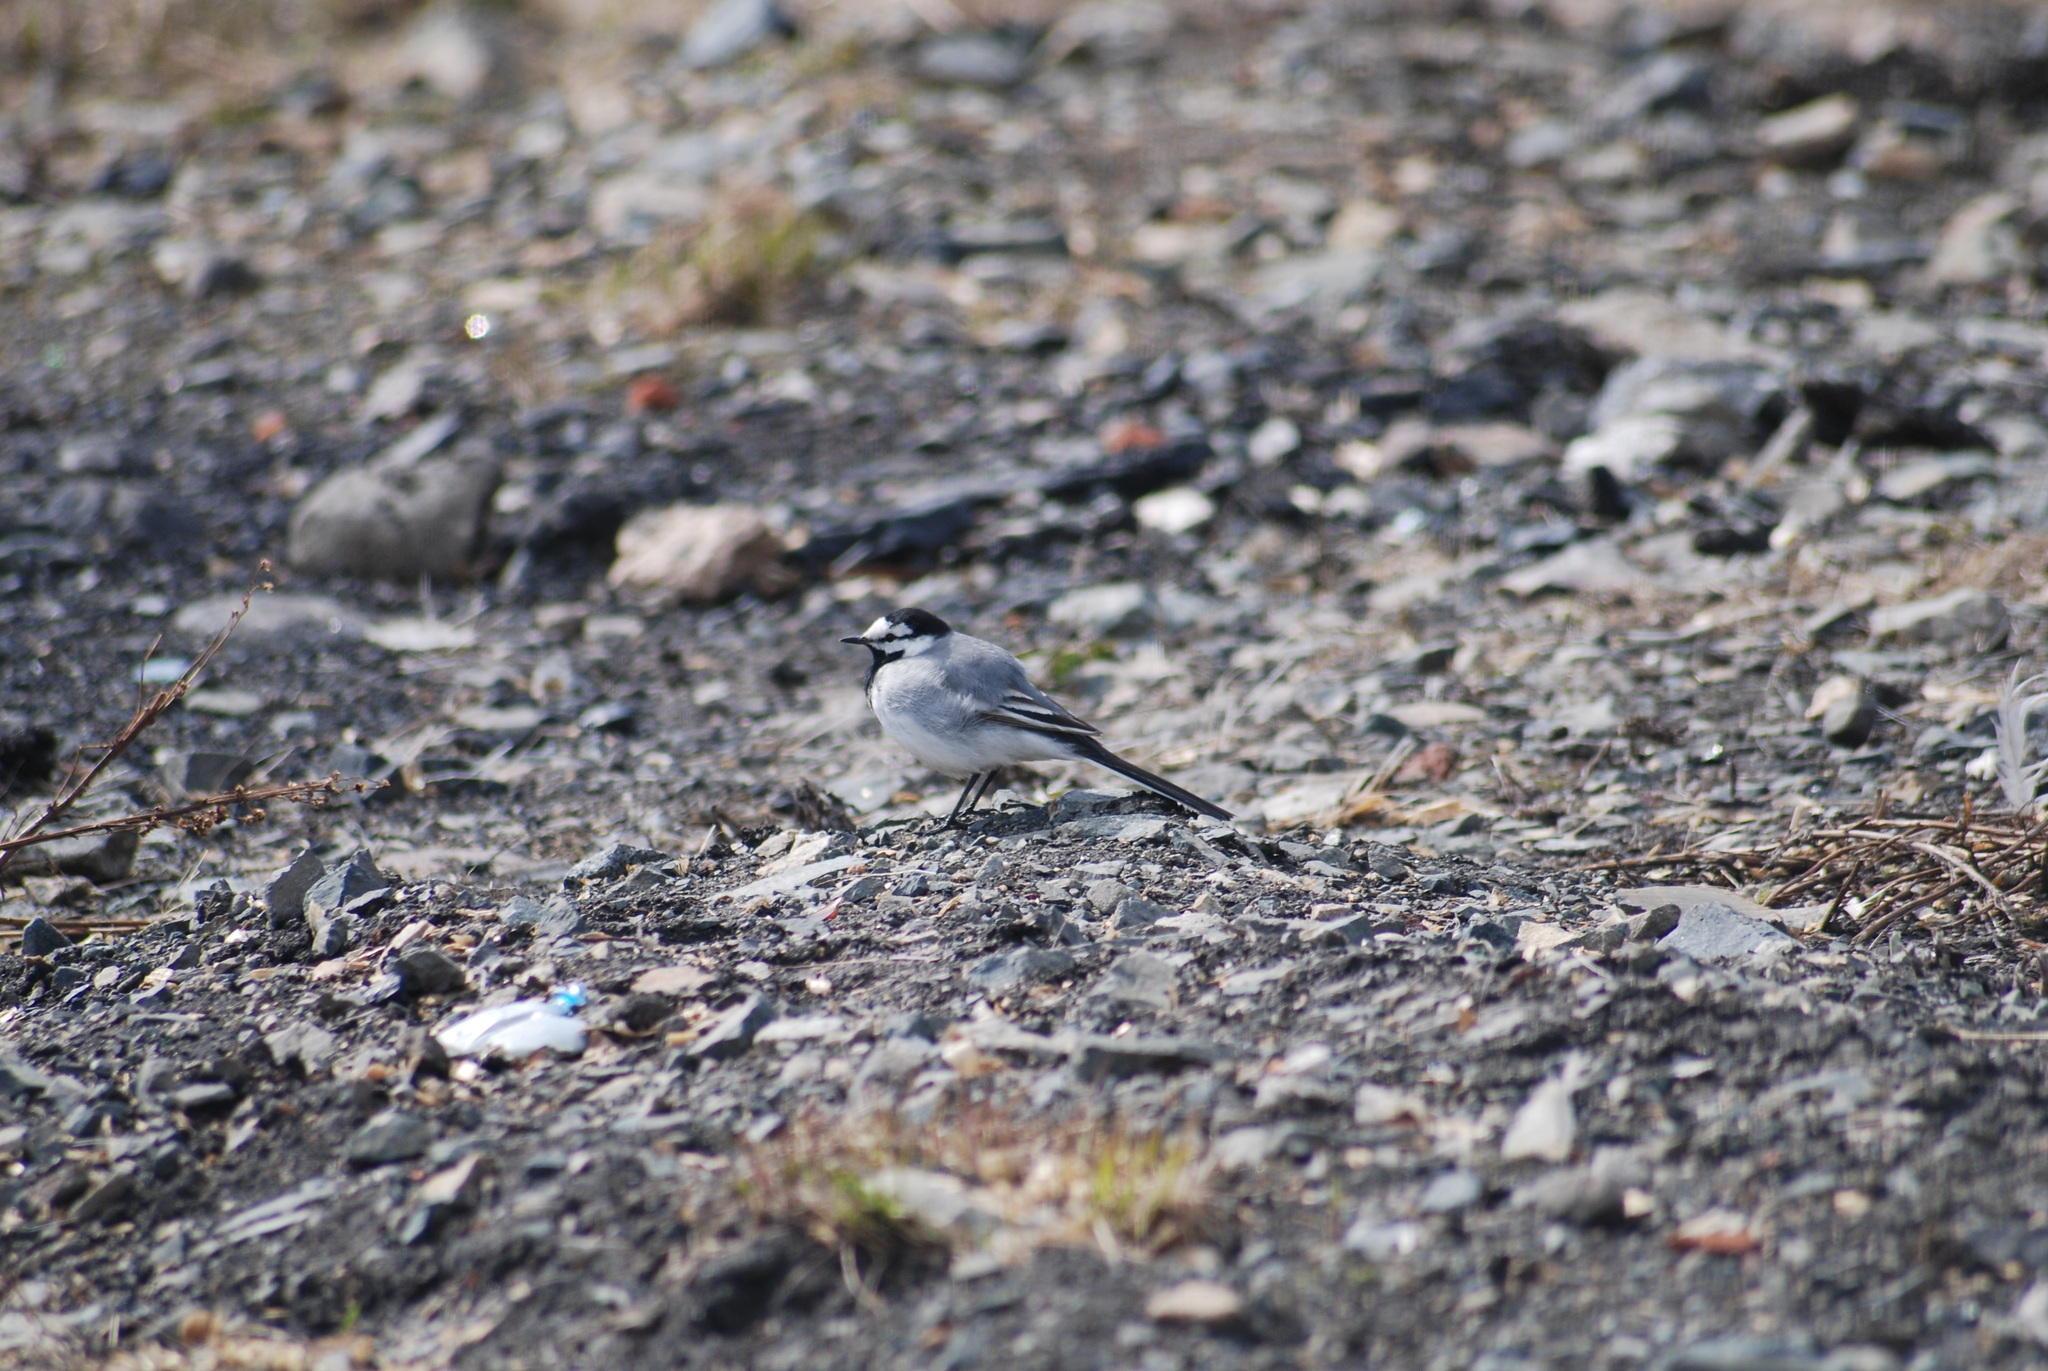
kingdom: Animalia
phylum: Chordata
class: Aves
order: Passeriformes
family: Motacillidae
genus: Motacilla
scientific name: Motacilla alba
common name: White wagtail
